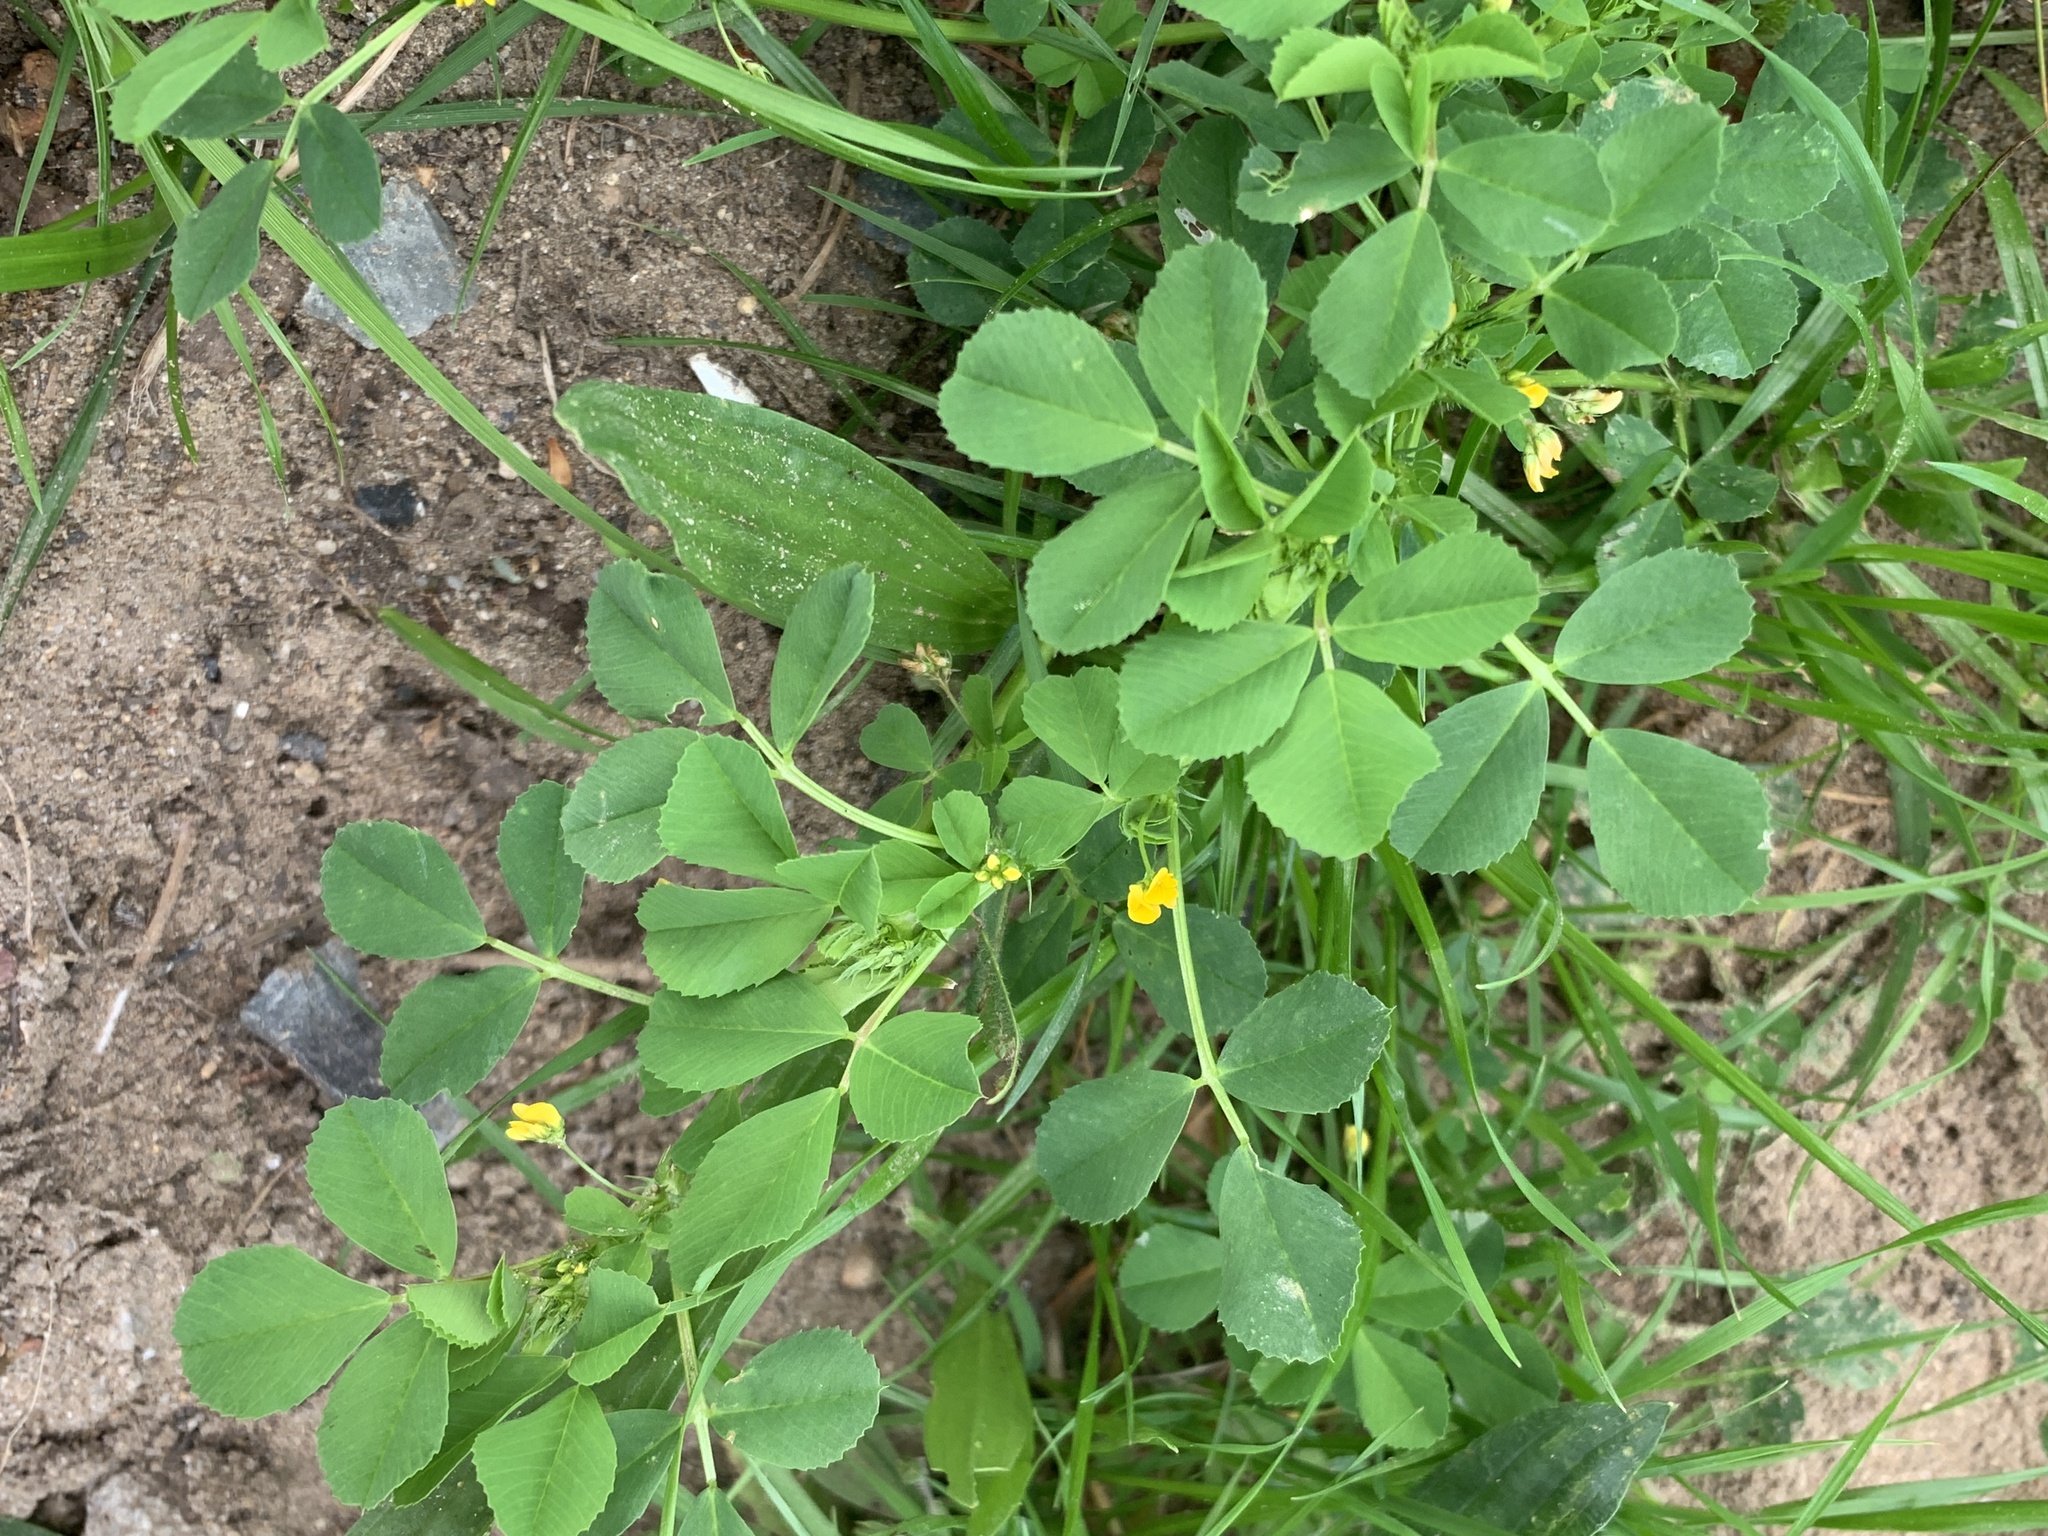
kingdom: Plantae
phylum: Tracheophyta
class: Magnoliopsida
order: Fabales
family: Fabaceae
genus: Medicago
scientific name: Medicago polymorpha
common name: Burclover
